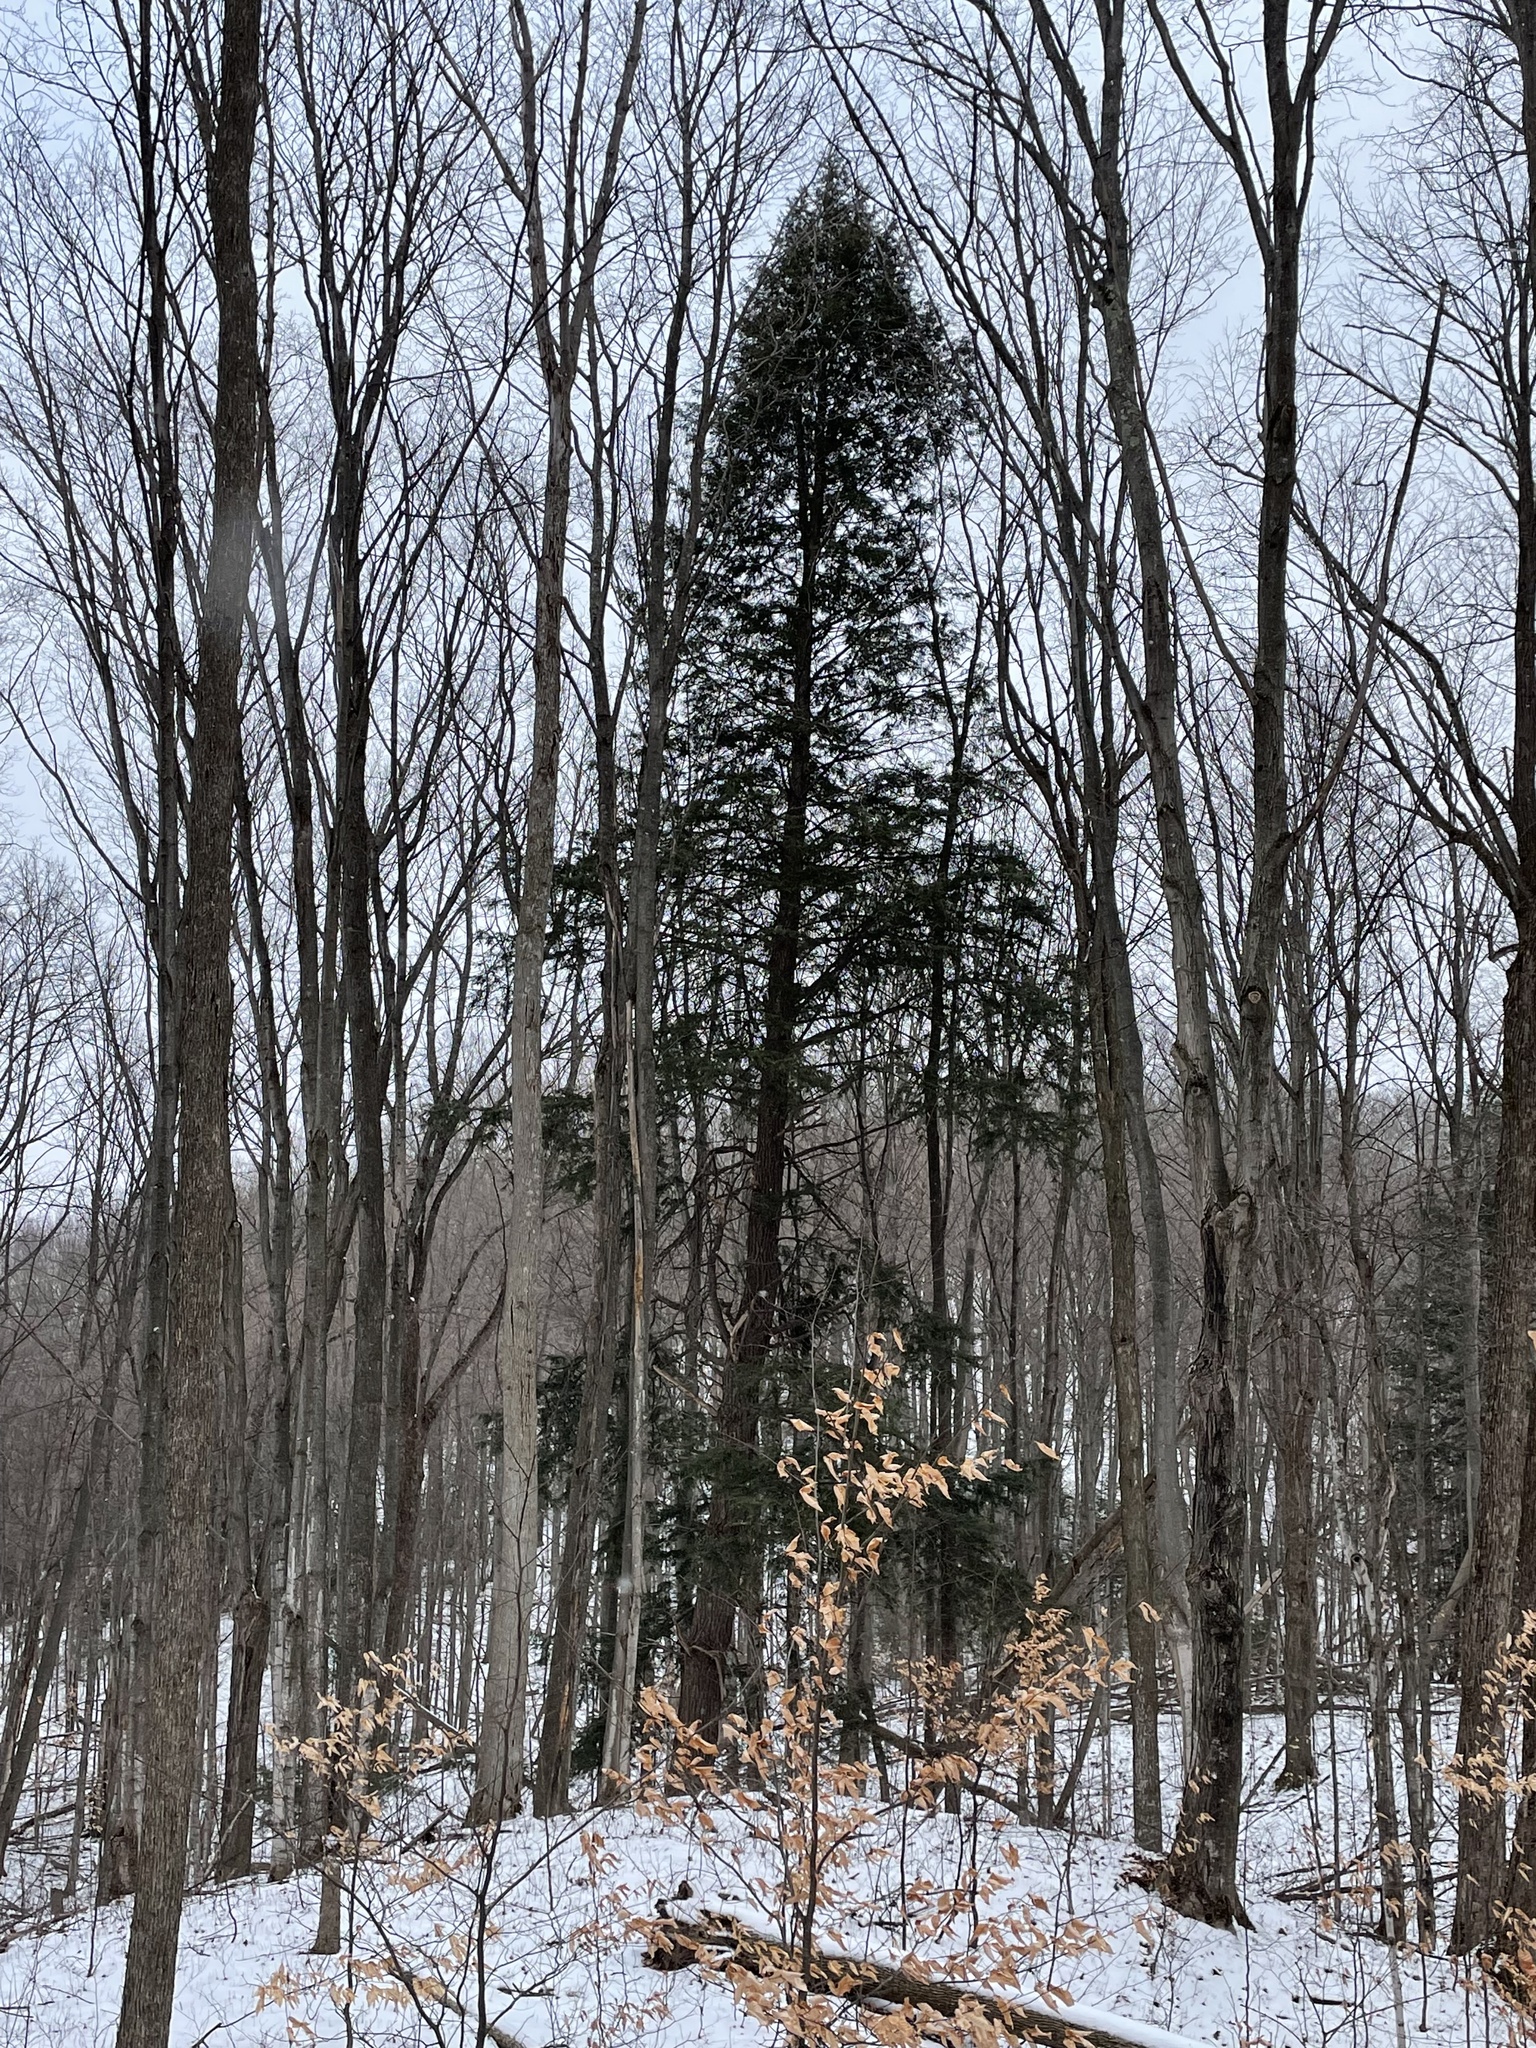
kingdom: Plantae
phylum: Tracheophyta
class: Pinopsida
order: Pinales
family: Pinaceae
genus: Tsuga
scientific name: Tsuga canadensis
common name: Eastern hemlock
